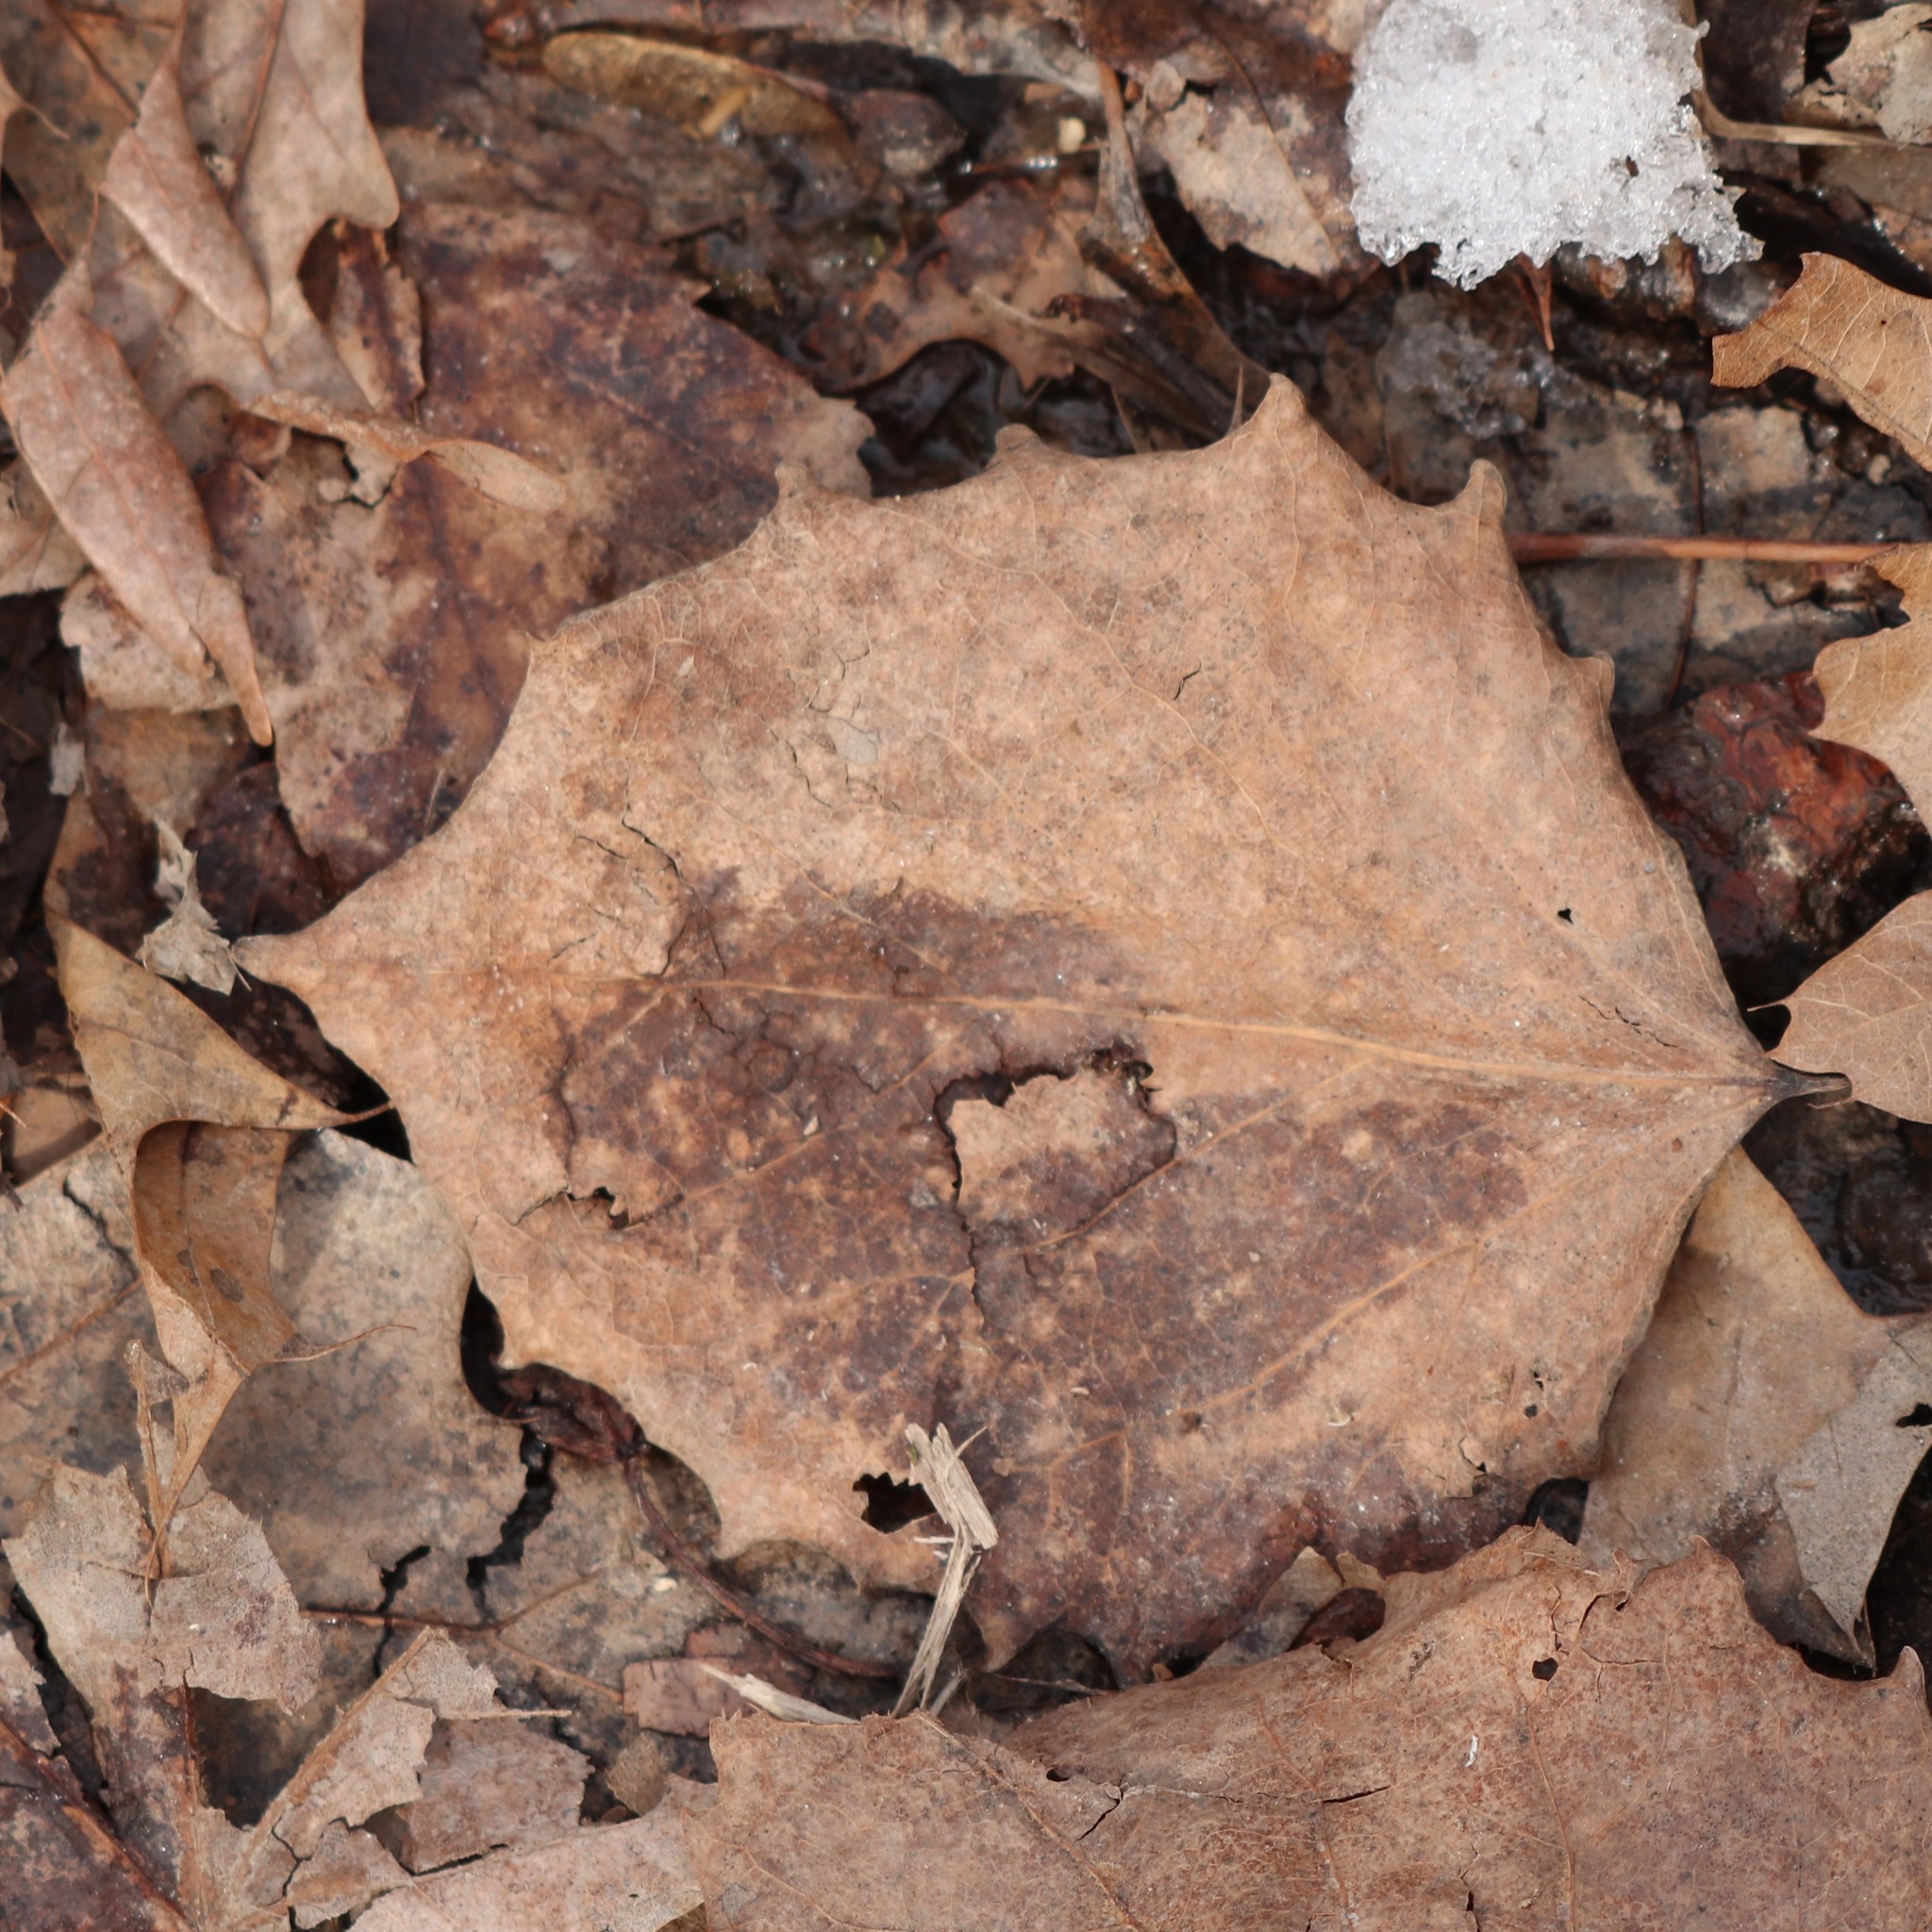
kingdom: Plantae
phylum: Tracheophyta
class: Magnoliopsida
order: Malpighiales
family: Salicaceae
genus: Populus
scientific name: Populus grandidentata
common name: Bigtooth aspen
